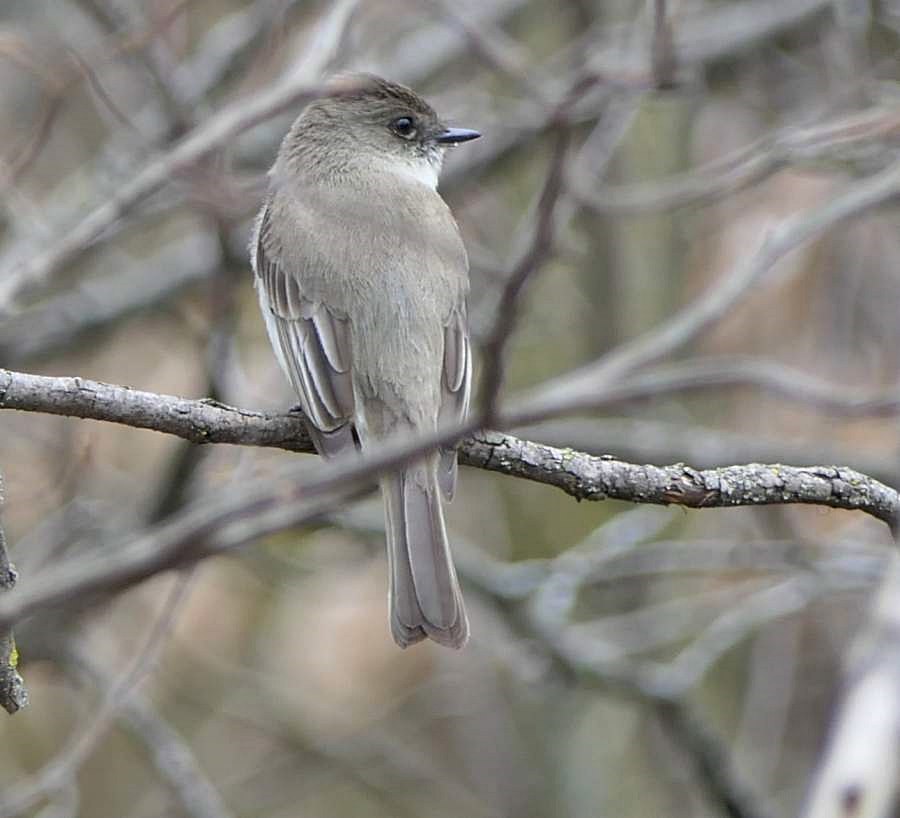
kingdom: Animalia
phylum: Chordata
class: Aves
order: Passeriformes
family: Tyrannidae
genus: Sayornis
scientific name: Sayornis phoebe
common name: Eastern phoebe
